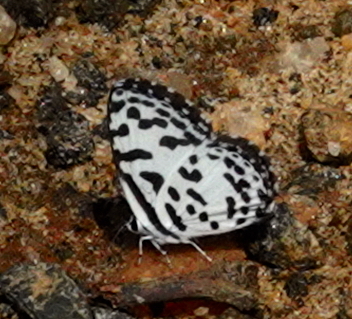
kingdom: Animalia
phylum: Arthropoda
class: Insecta
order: Lepidoptera
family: Lycaenidae
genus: Castalius
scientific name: Castalius rosimon
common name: Common pierrot
